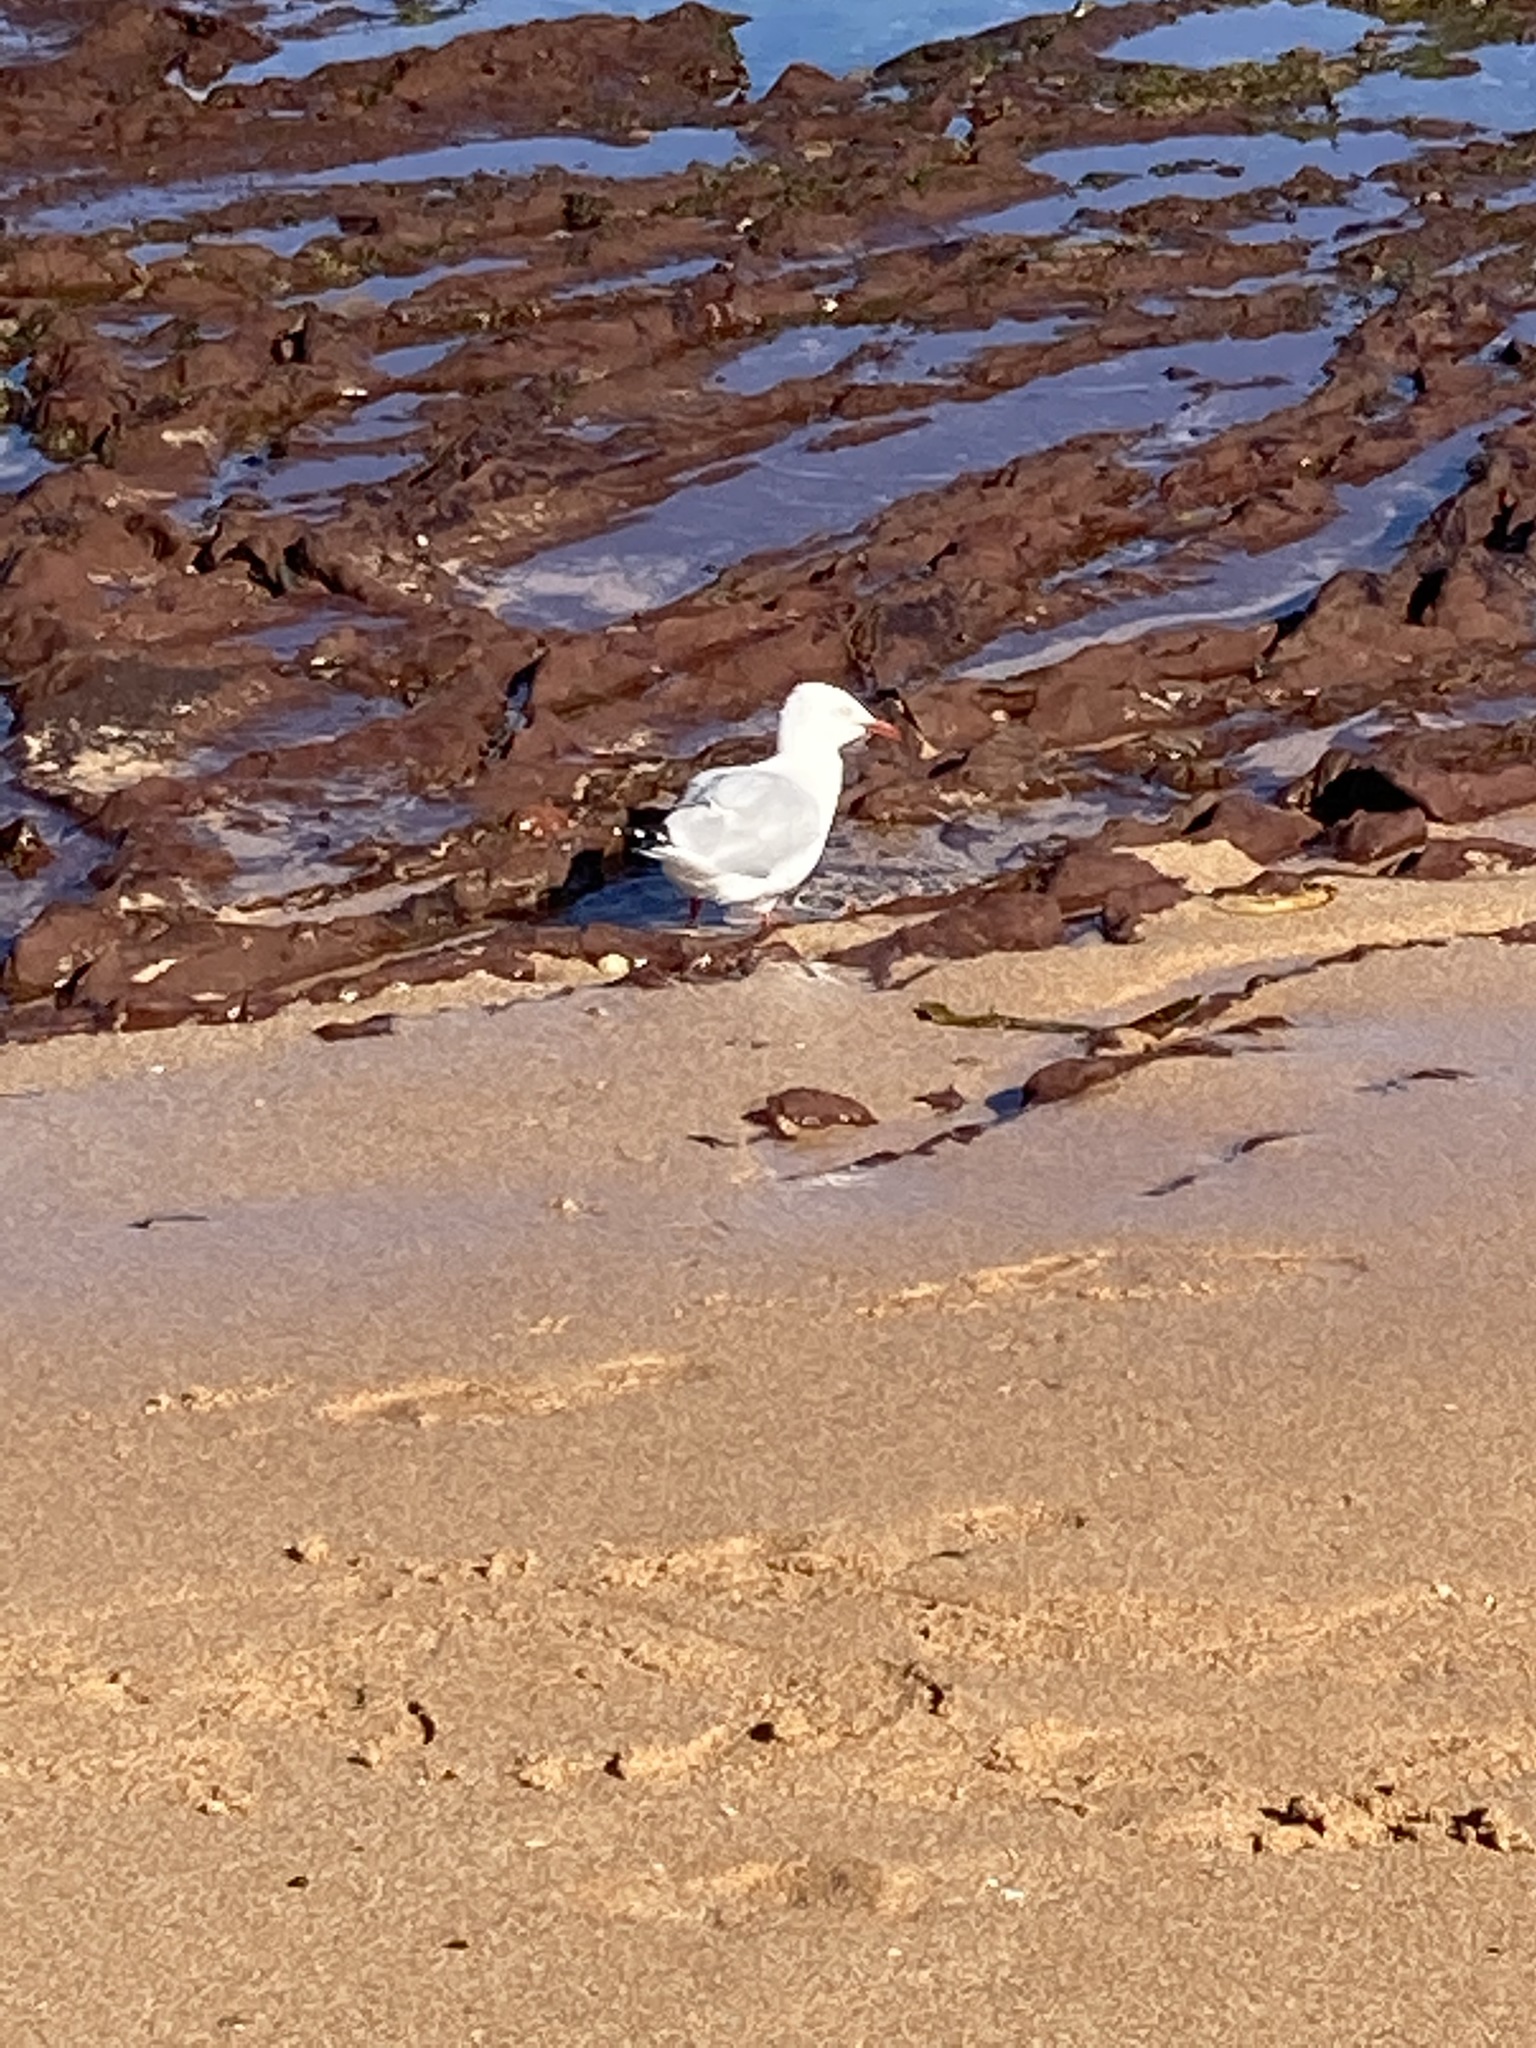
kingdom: Animalia
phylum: Chordata
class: Aves
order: Charadriiformes
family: Laridae
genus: Chroicocephalus
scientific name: Chroicocephalus novaehollandiae
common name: Silver gull
